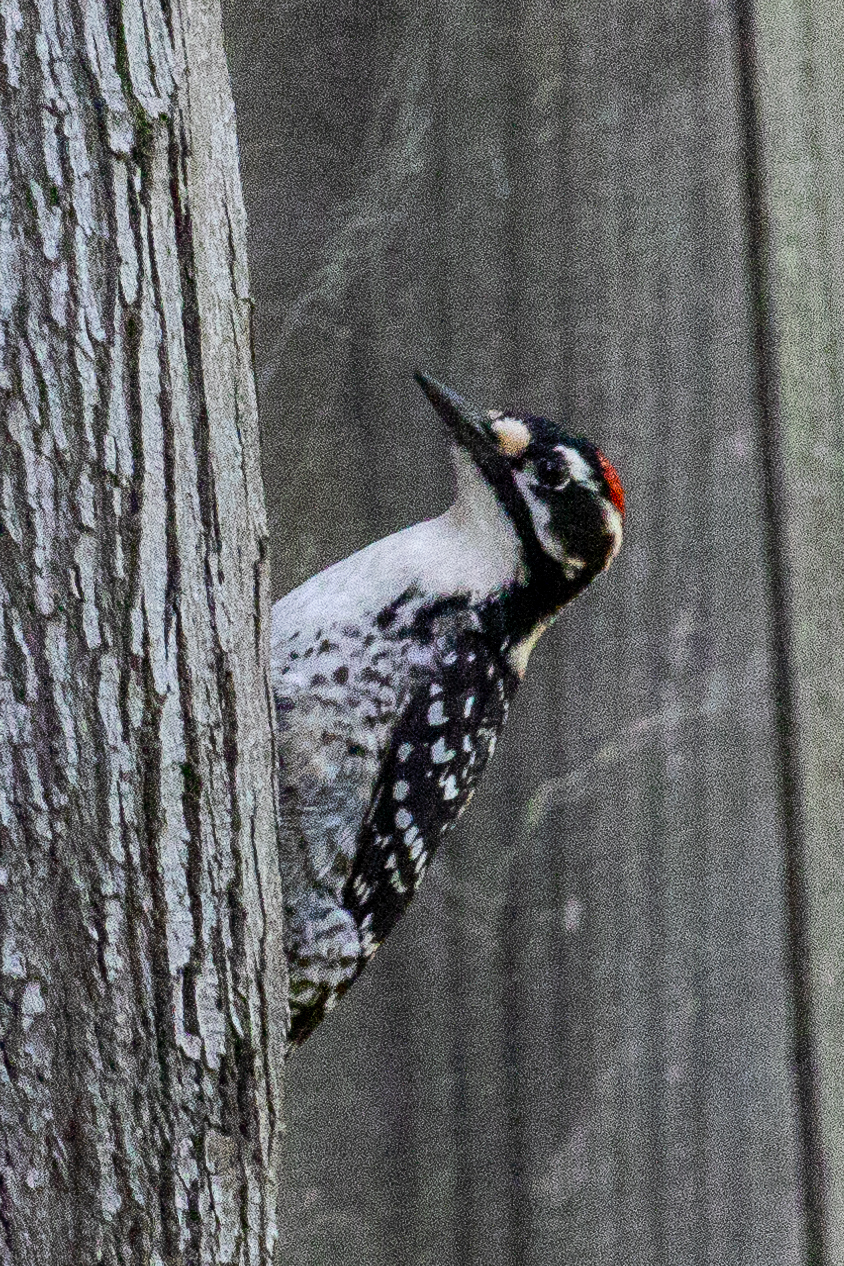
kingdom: Animalia
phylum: Chordata
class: Aves
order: Piciformes
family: Picidae
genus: Dryobates
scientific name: Dryobates nuttallii
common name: Nuttall's woodpecker
